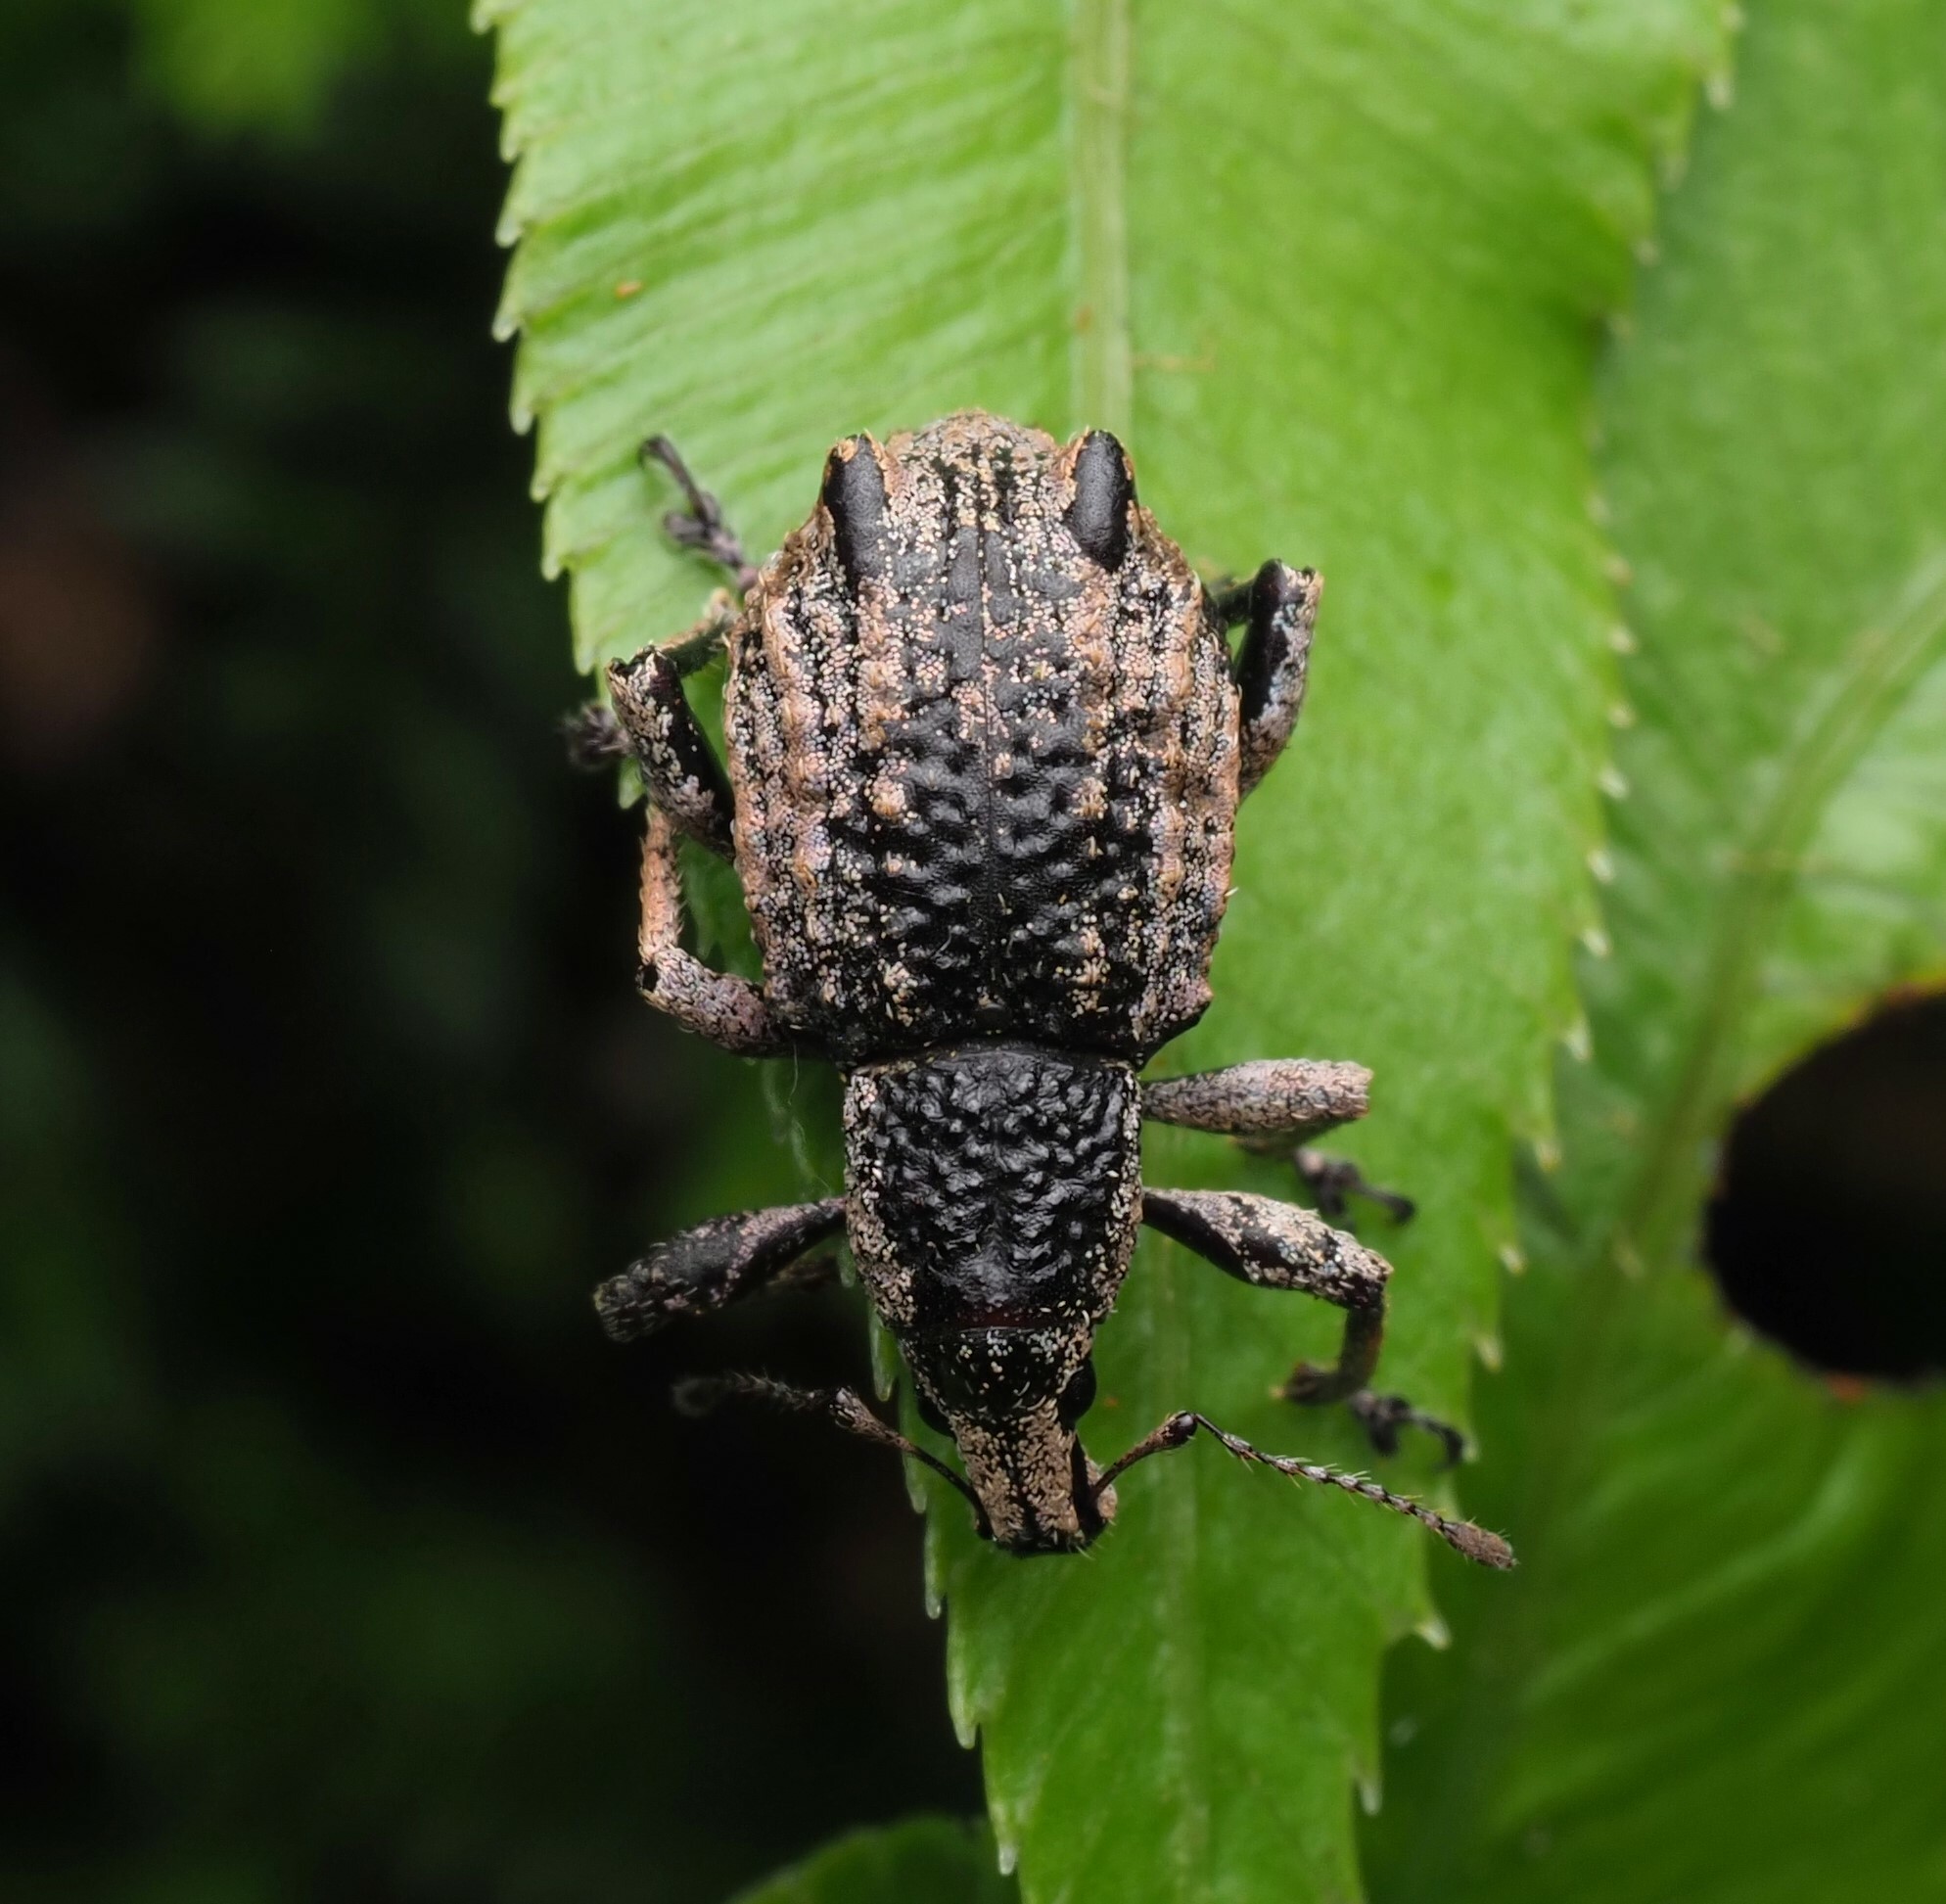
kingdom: Animalia
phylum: Arthropoda
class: Insecta
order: Coleoptera
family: Curculionidae
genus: Catoptes
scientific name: Catoptes binodis
